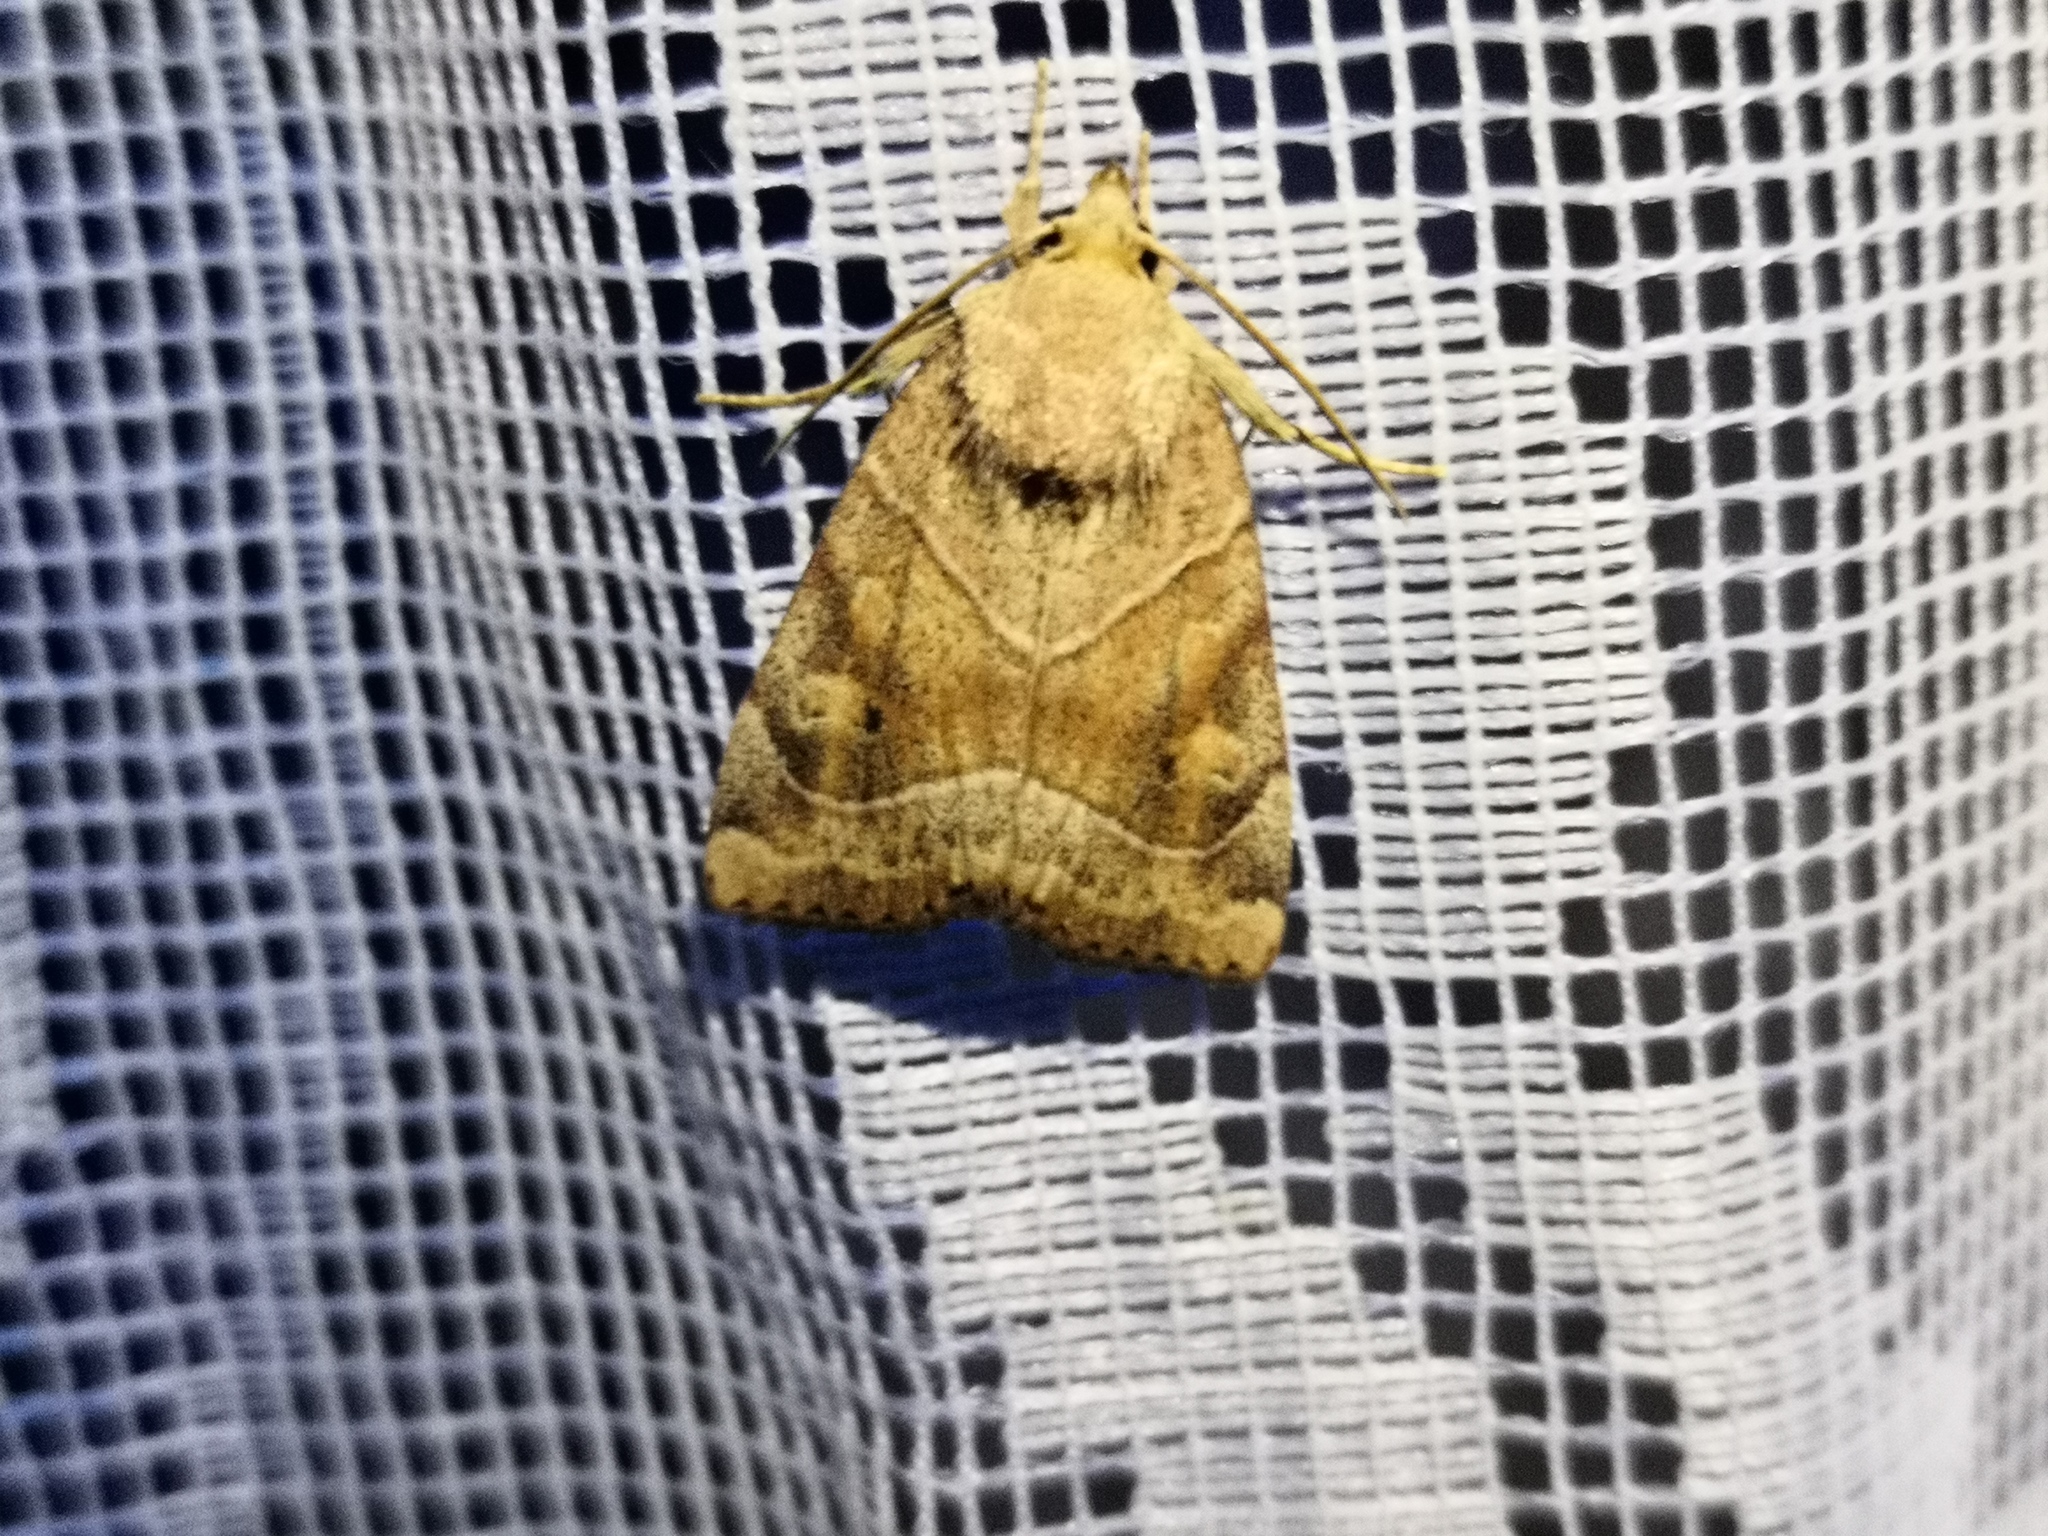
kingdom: Animalia
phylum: Arthropoda
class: Insecta
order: Lepidoptera
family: Noctuidae
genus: Cosmia
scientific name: Cosmia trapezina
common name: Dun-bar
